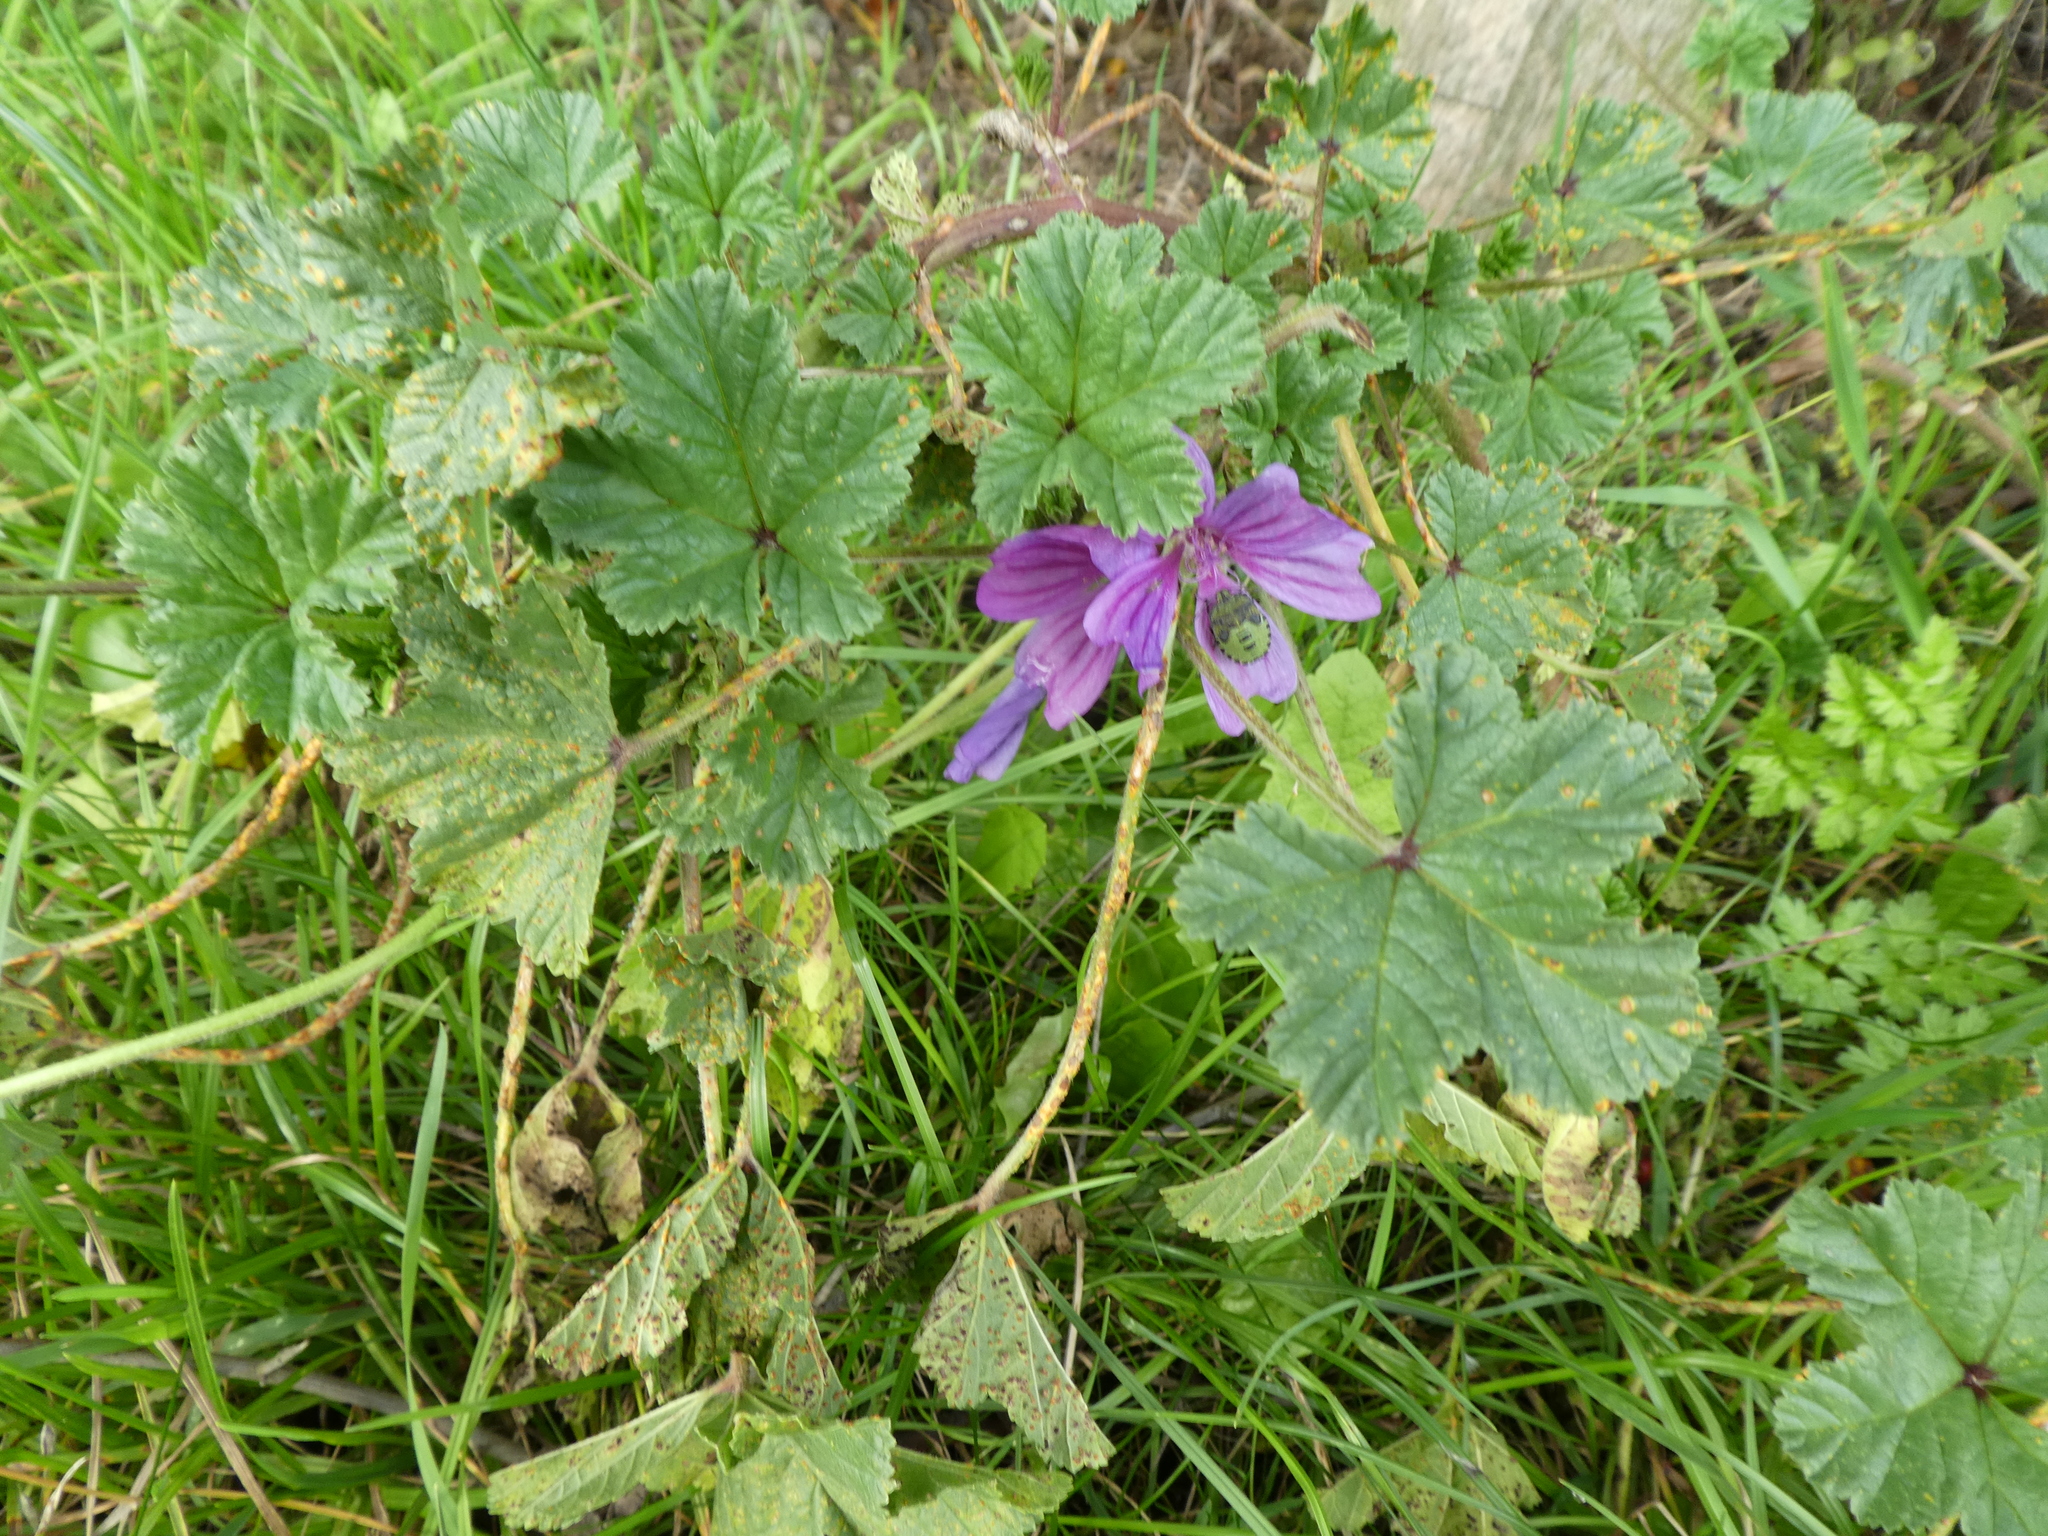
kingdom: Plantae
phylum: Tracheophyta
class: Magnoliopsida
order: Malvales
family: Malvaceae
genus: Malva
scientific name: Malva sylvestris
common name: Common mallow
